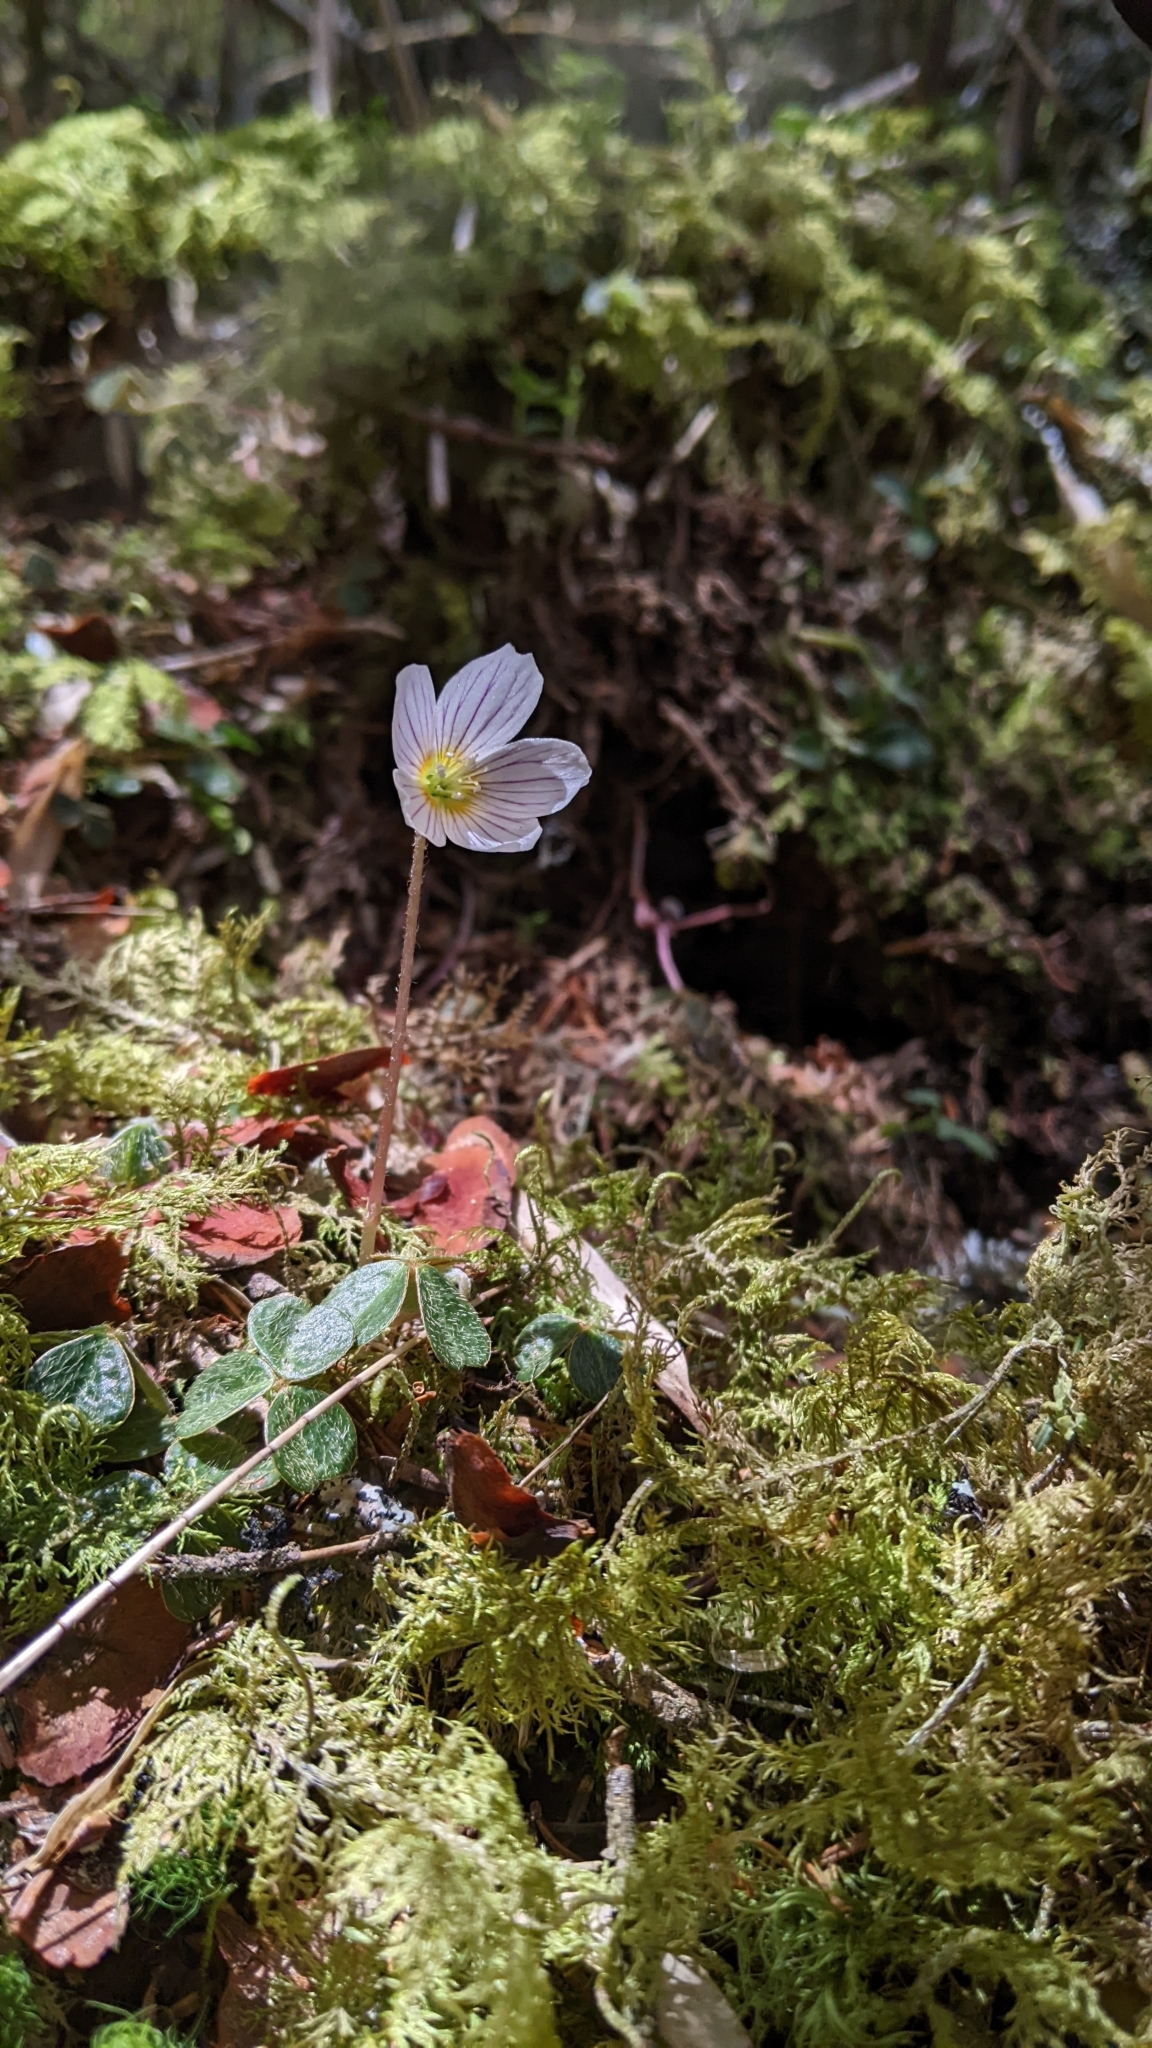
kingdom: Plantae
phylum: Tracheophyta
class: Magnoliopsida
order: Oxalidales
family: Oxalidaceae
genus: Oxalis
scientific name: Oxalis griffithii
